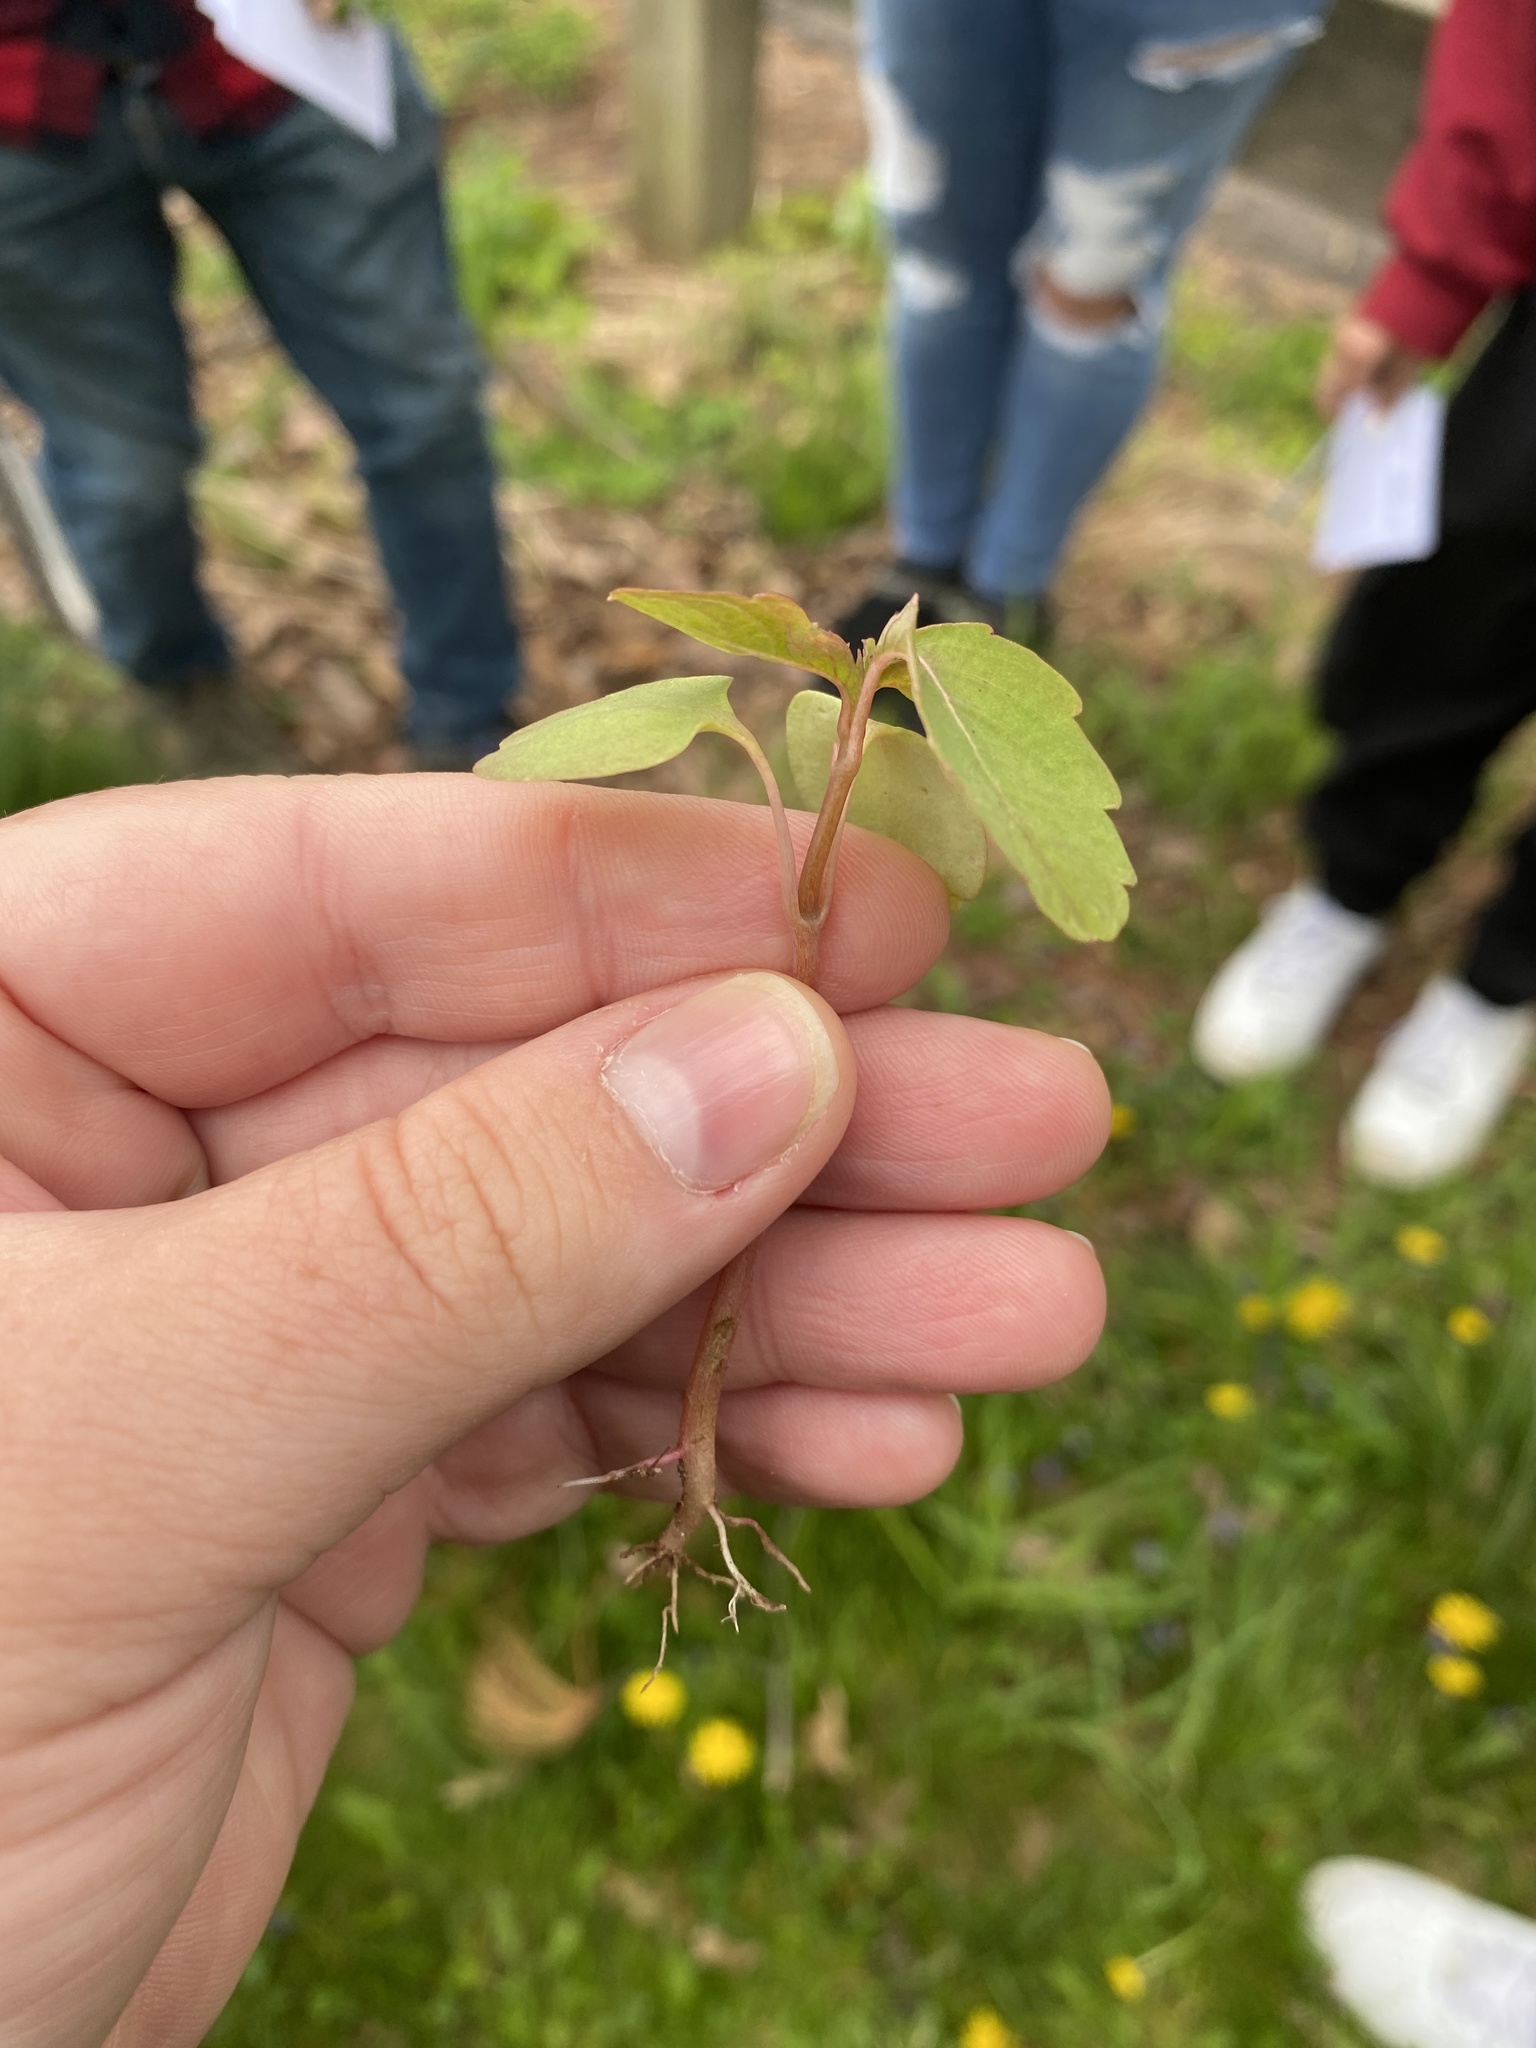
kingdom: Plantae
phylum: Tracheophyta
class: Magnoliopsida
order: Ericales
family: Balsaminaceae
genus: Impatiens
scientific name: Impatiens capensis
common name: Orange balsam
